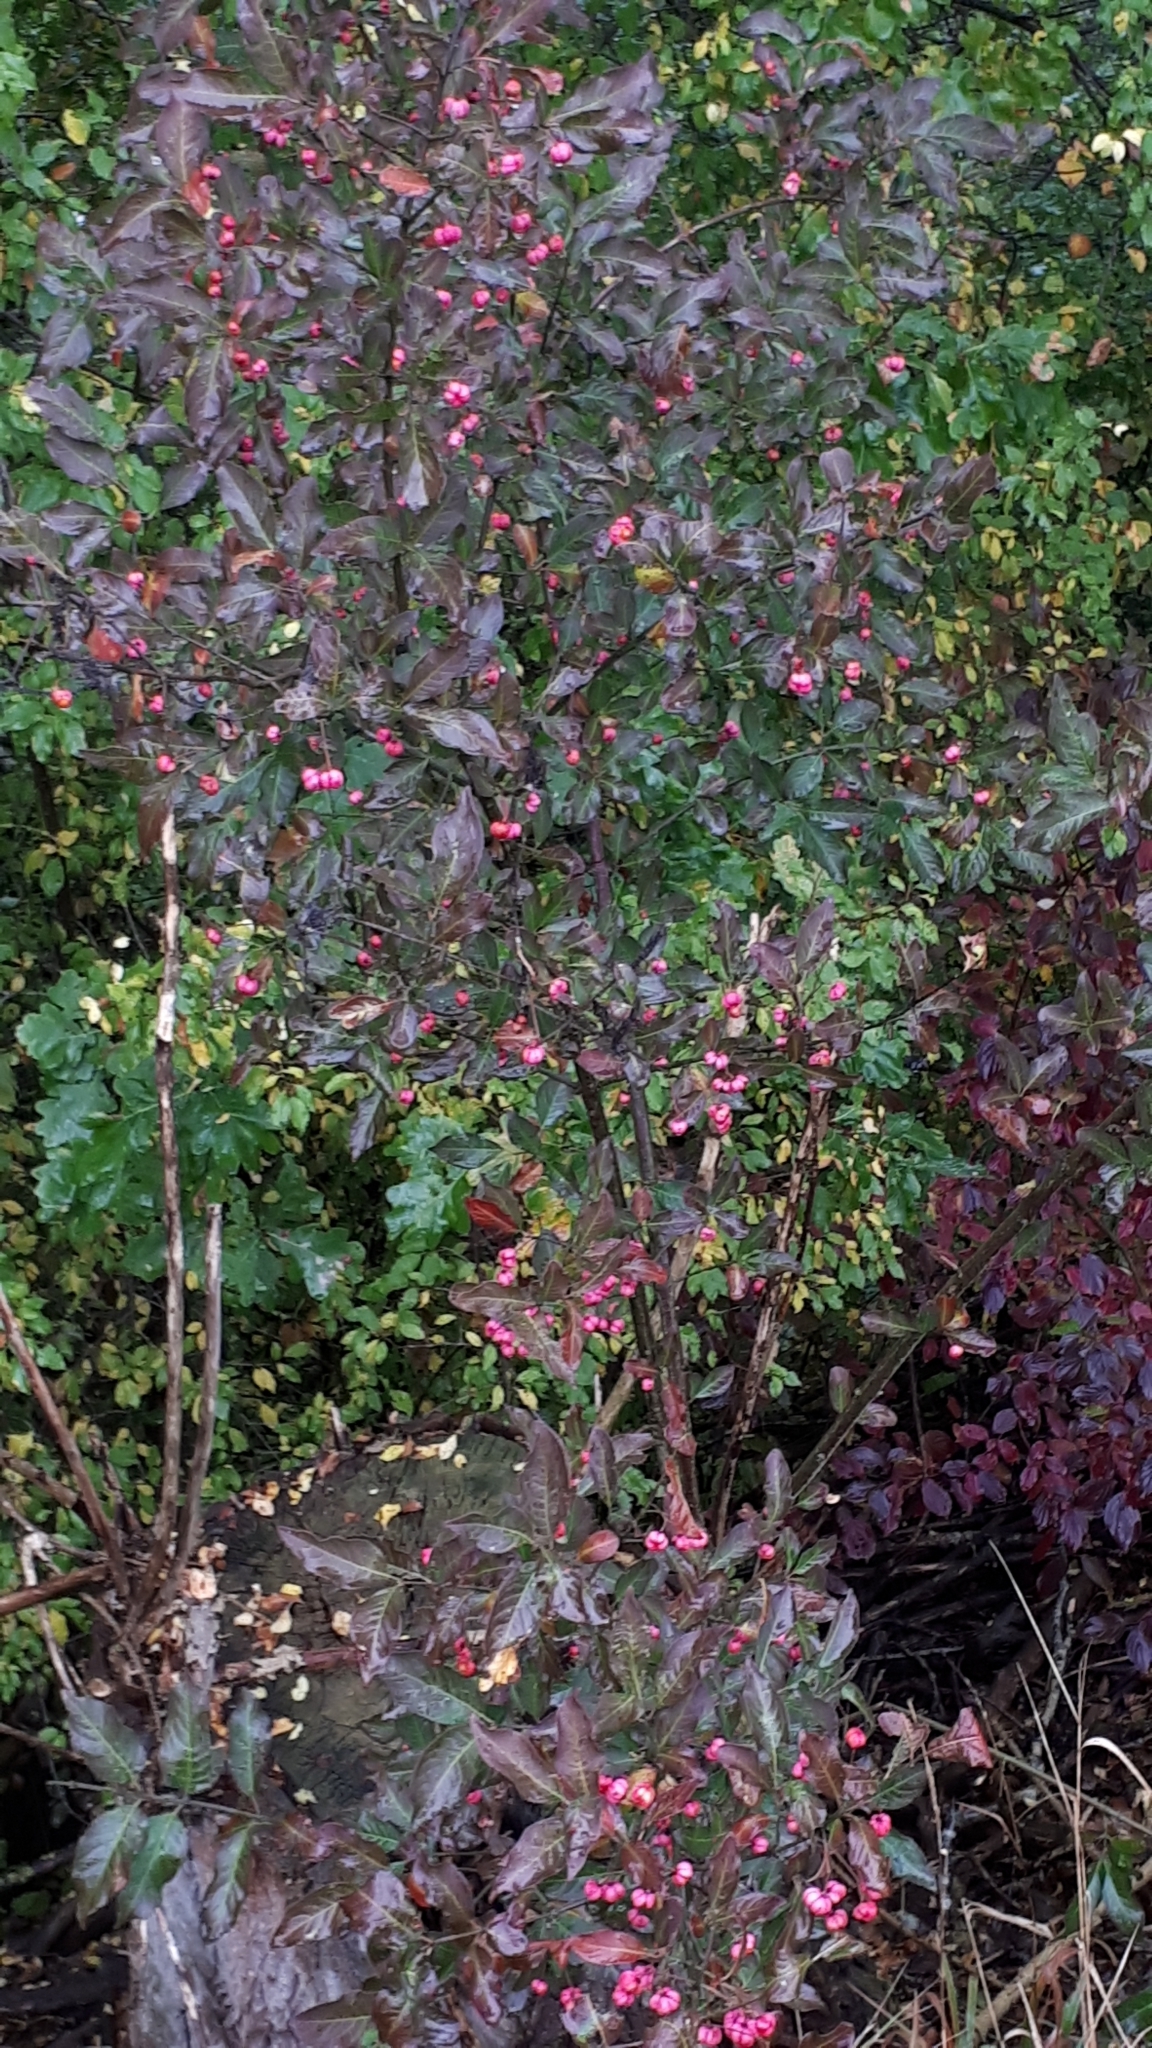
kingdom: Plantae
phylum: Tracheophyta
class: Magnoliopsida
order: Celastrales
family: Celastraceae
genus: Euonymus
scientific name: Euonymus europaeus
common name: Spindle
